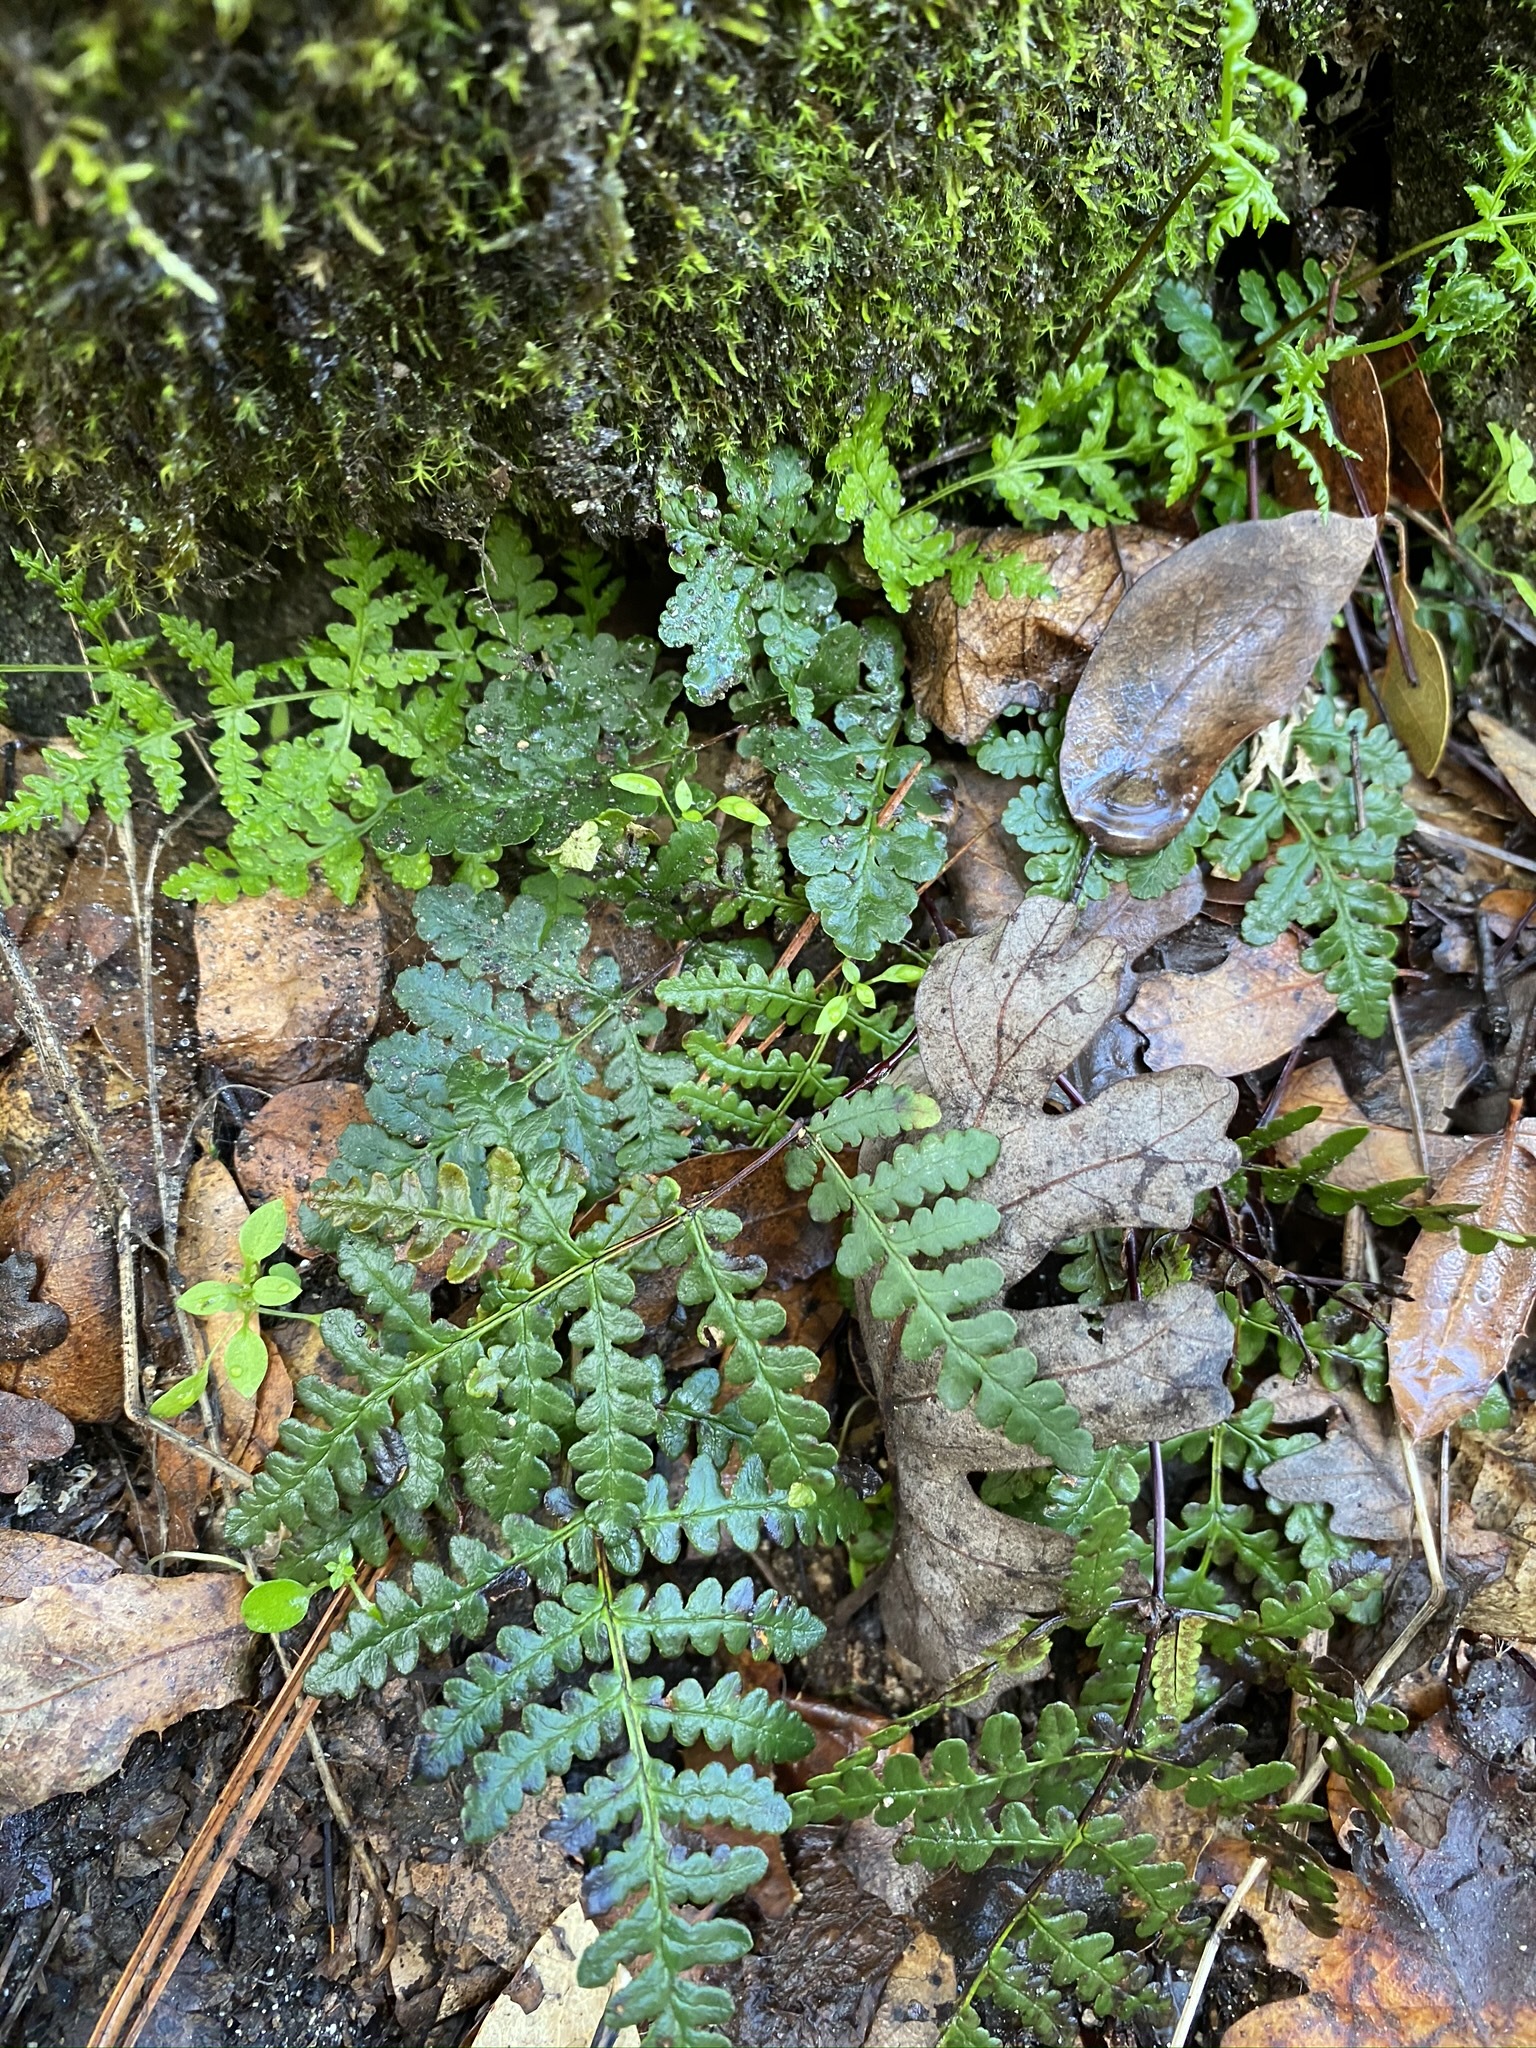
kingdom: Plantae
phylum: Tracheophyta
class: Polypodiopsida
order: Polypodiales
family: Pteridaceae
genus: Pentagramma
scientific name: Pentagramma triangularis
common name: Gold fern
